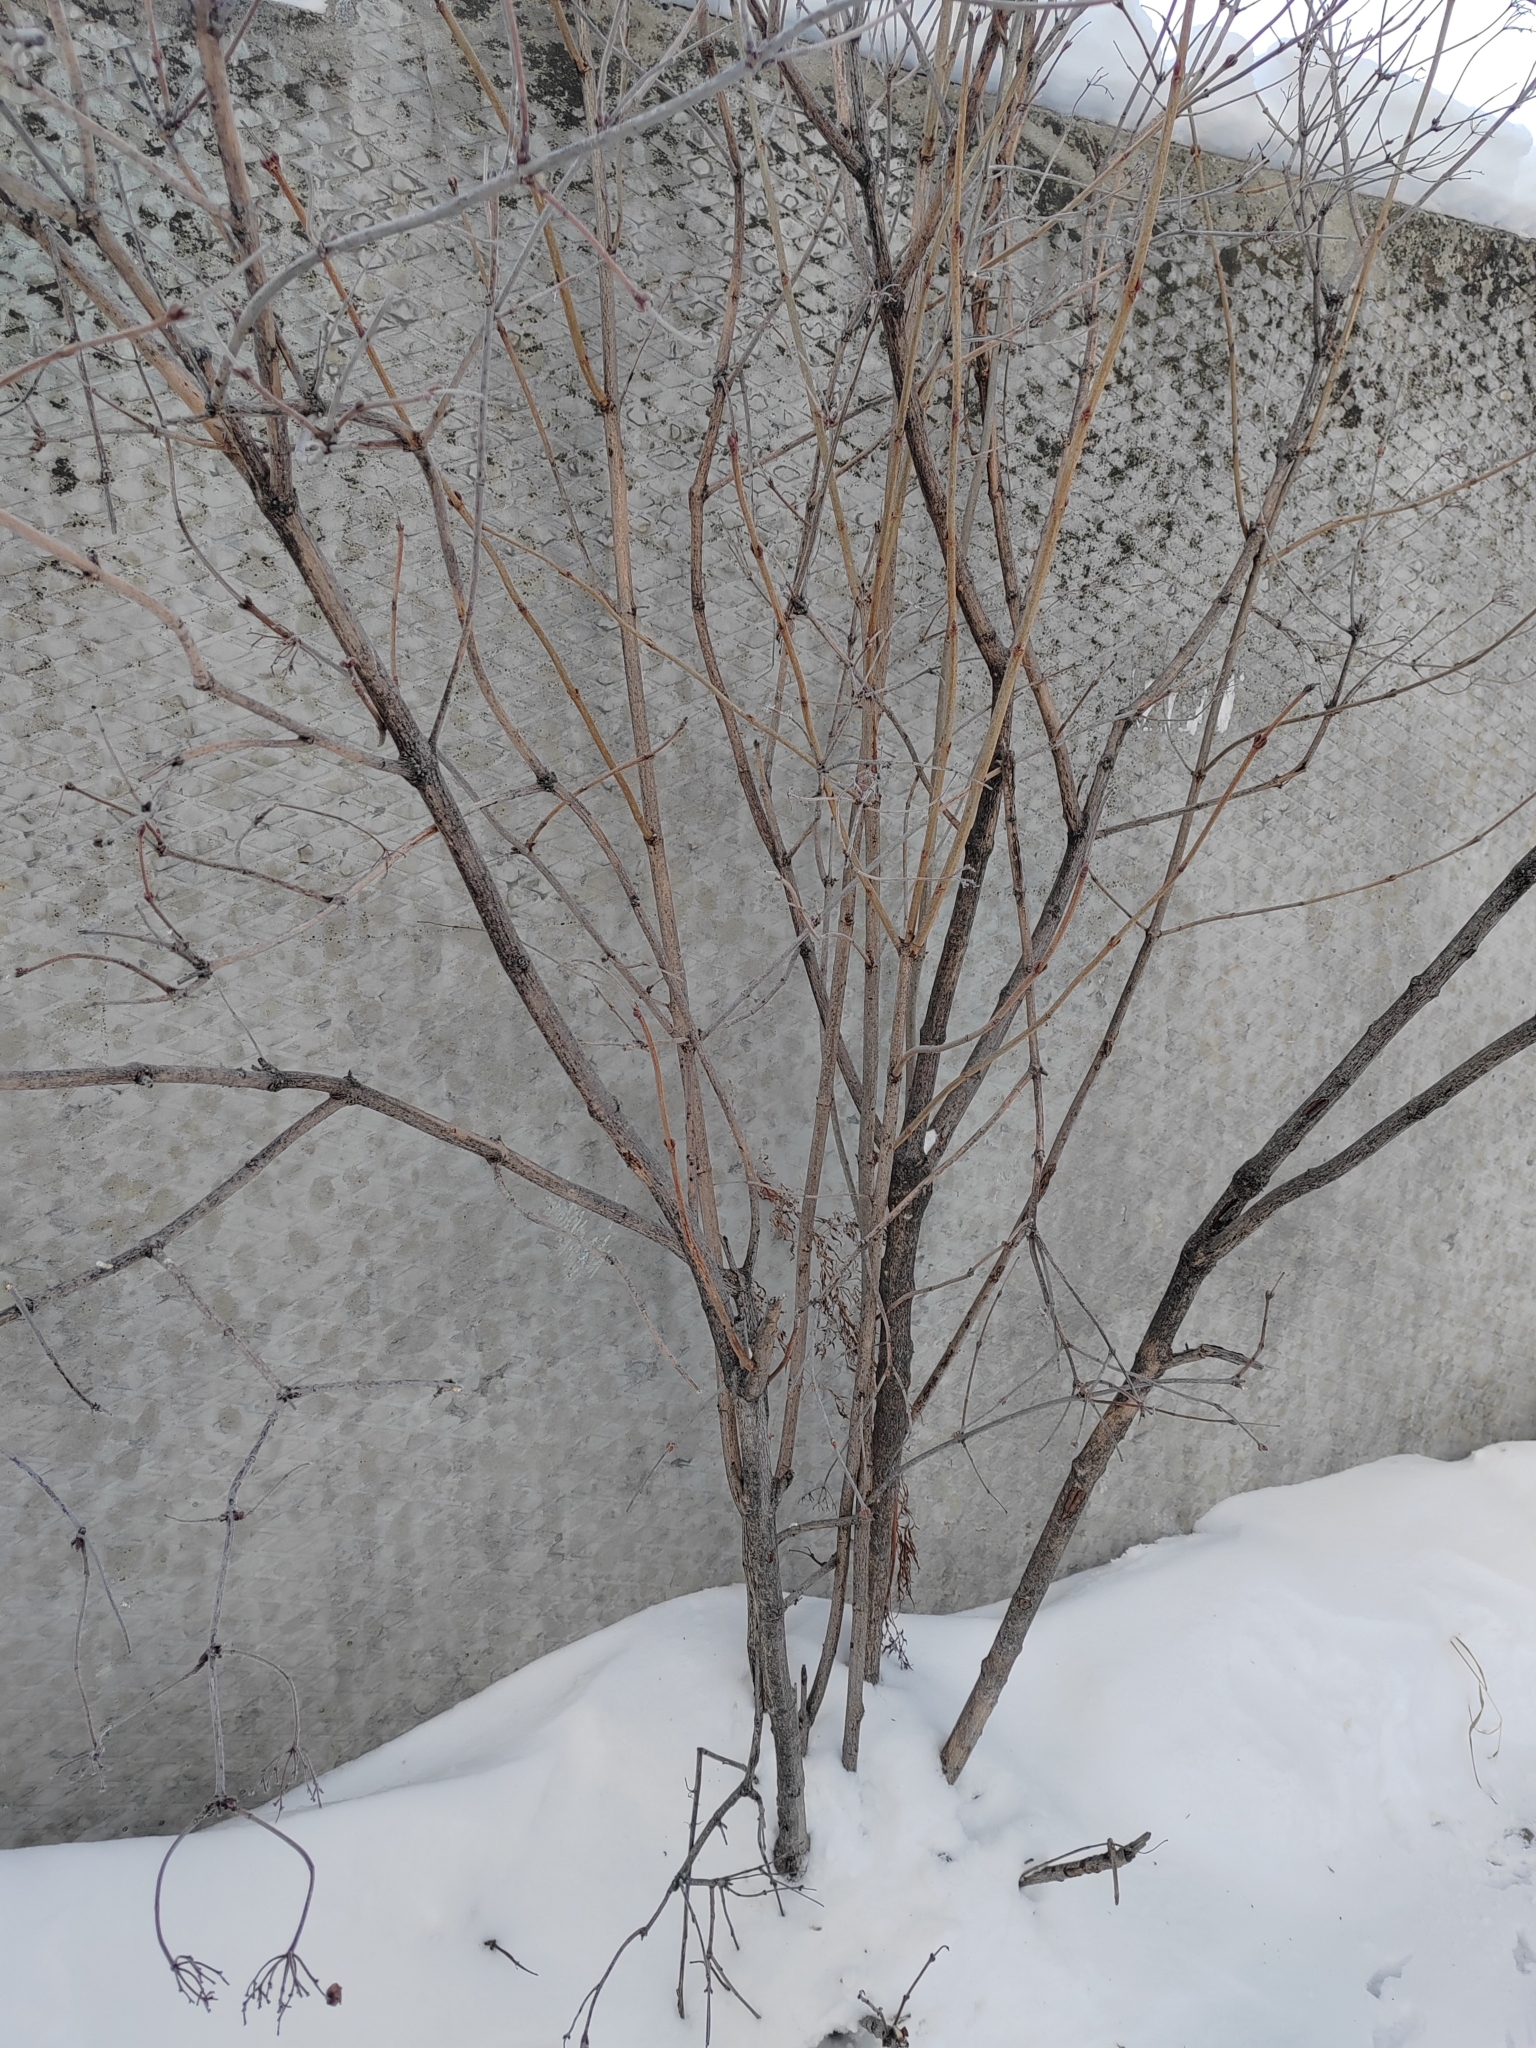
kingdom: Plantae
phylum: Tracheophyta
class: Magnoliopsida
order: Dipsacales
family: Viburnaceae
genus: Viburnum
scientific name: Viburnum opulus
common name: Guelder-rose
